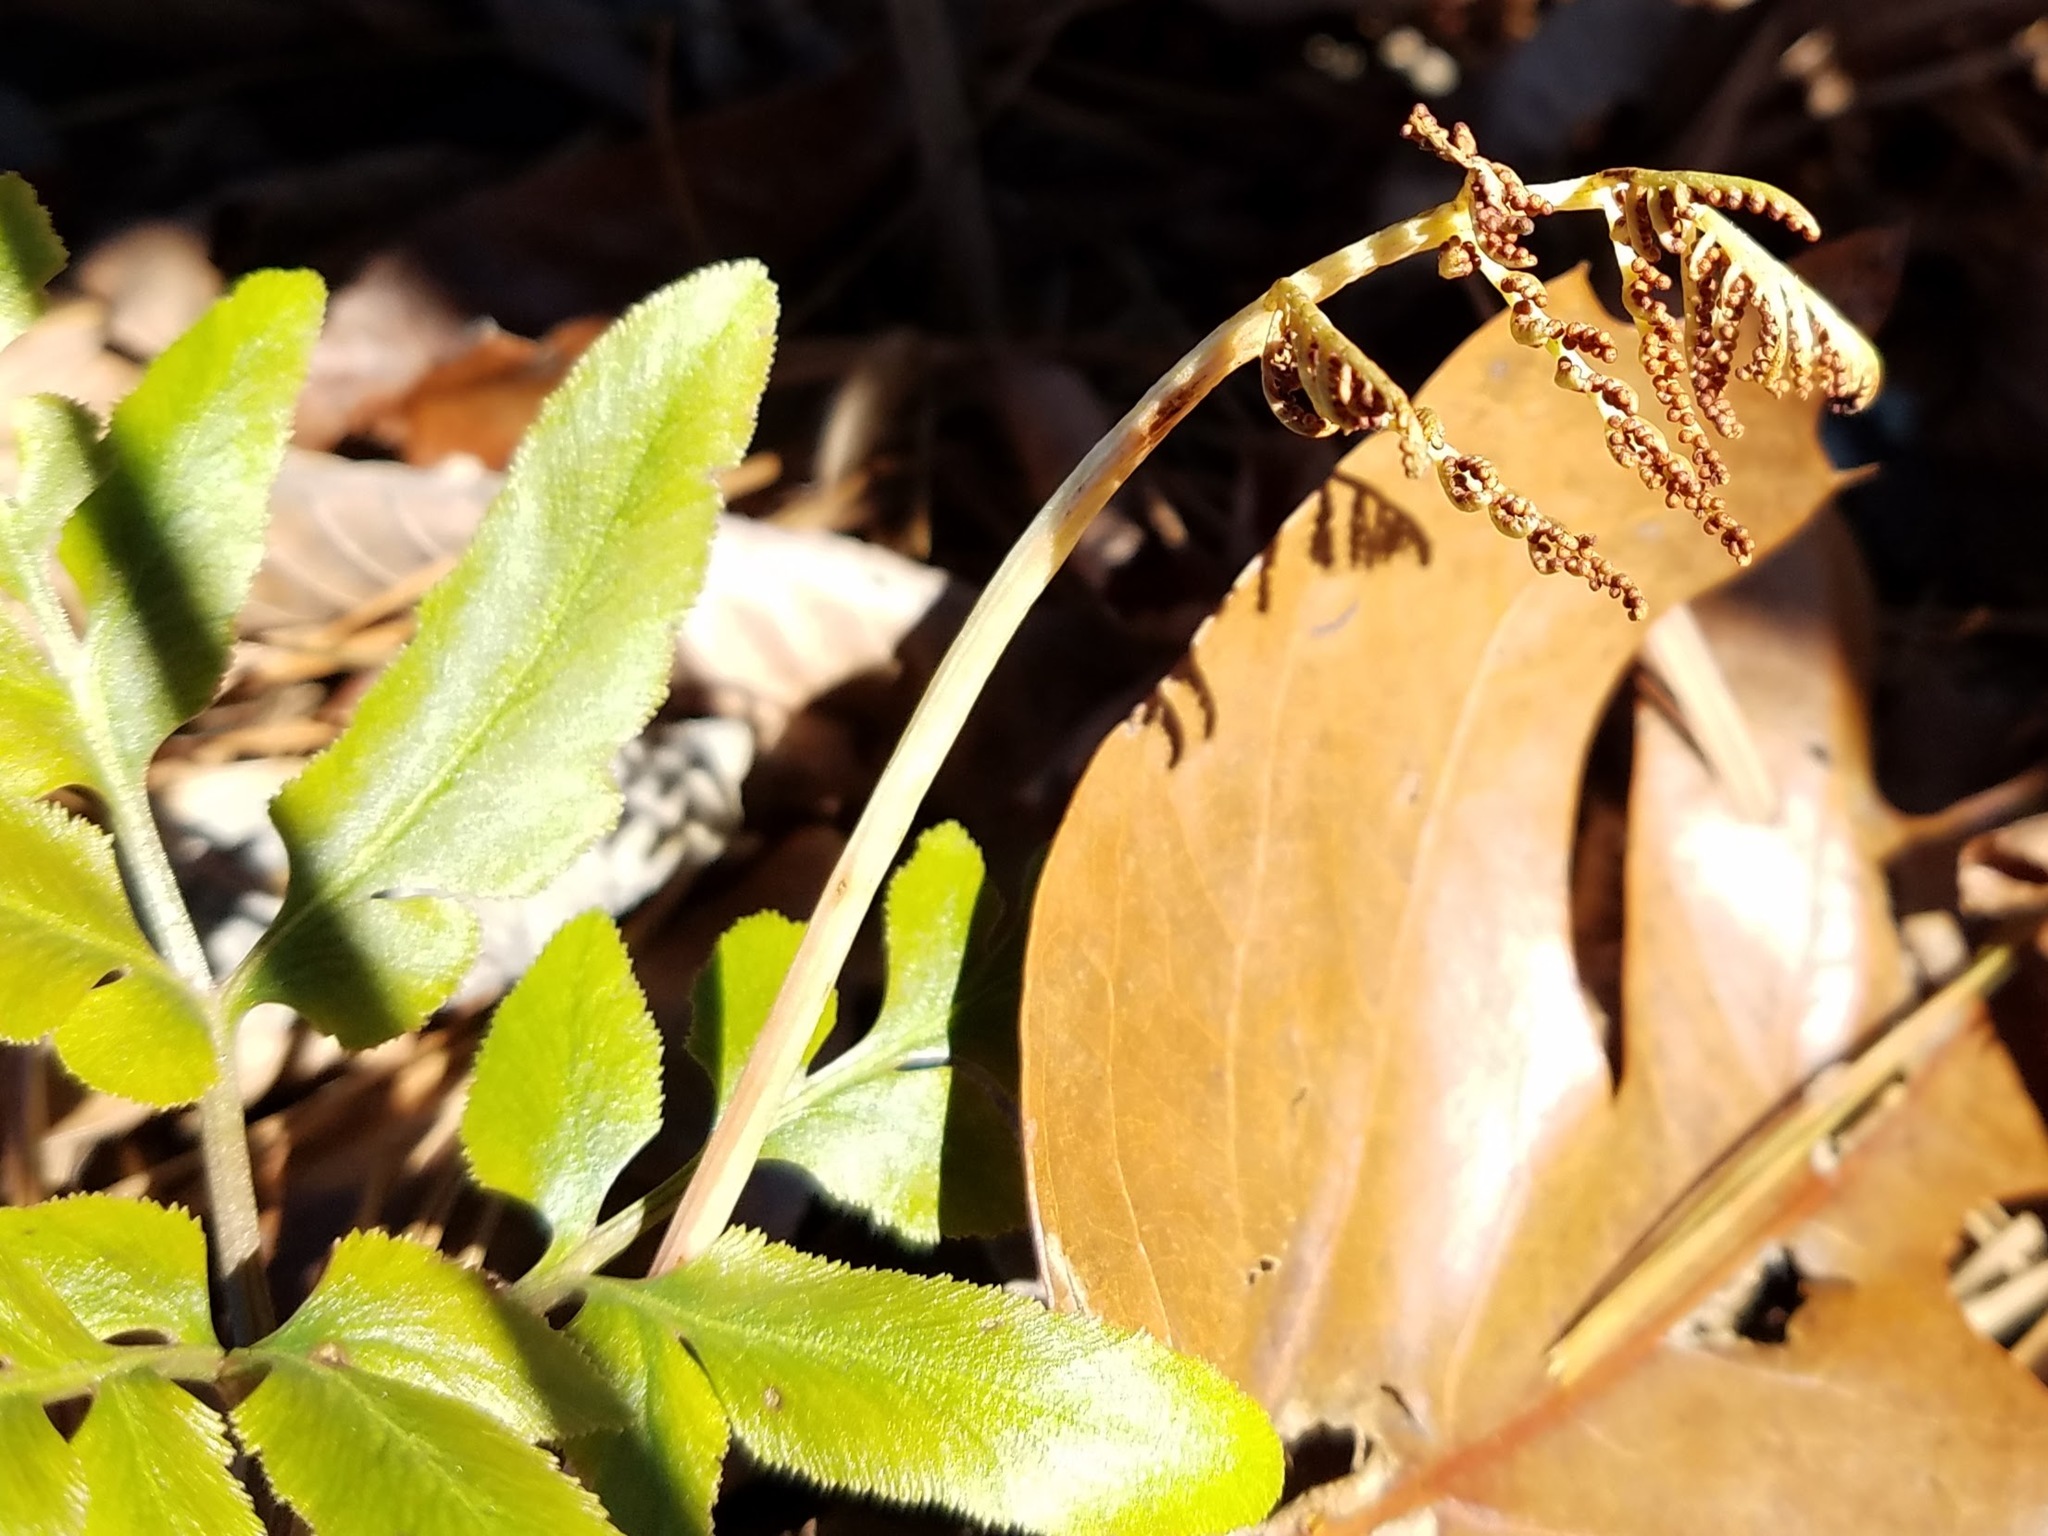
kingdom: Plantae
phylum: Tracheophyta
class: Polypodiopsida
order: Ophioglossales
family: Ophioglossaceae
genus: Sceptridium
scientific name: Sceptridium biternatum
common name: Sparse-lobed grapefern
